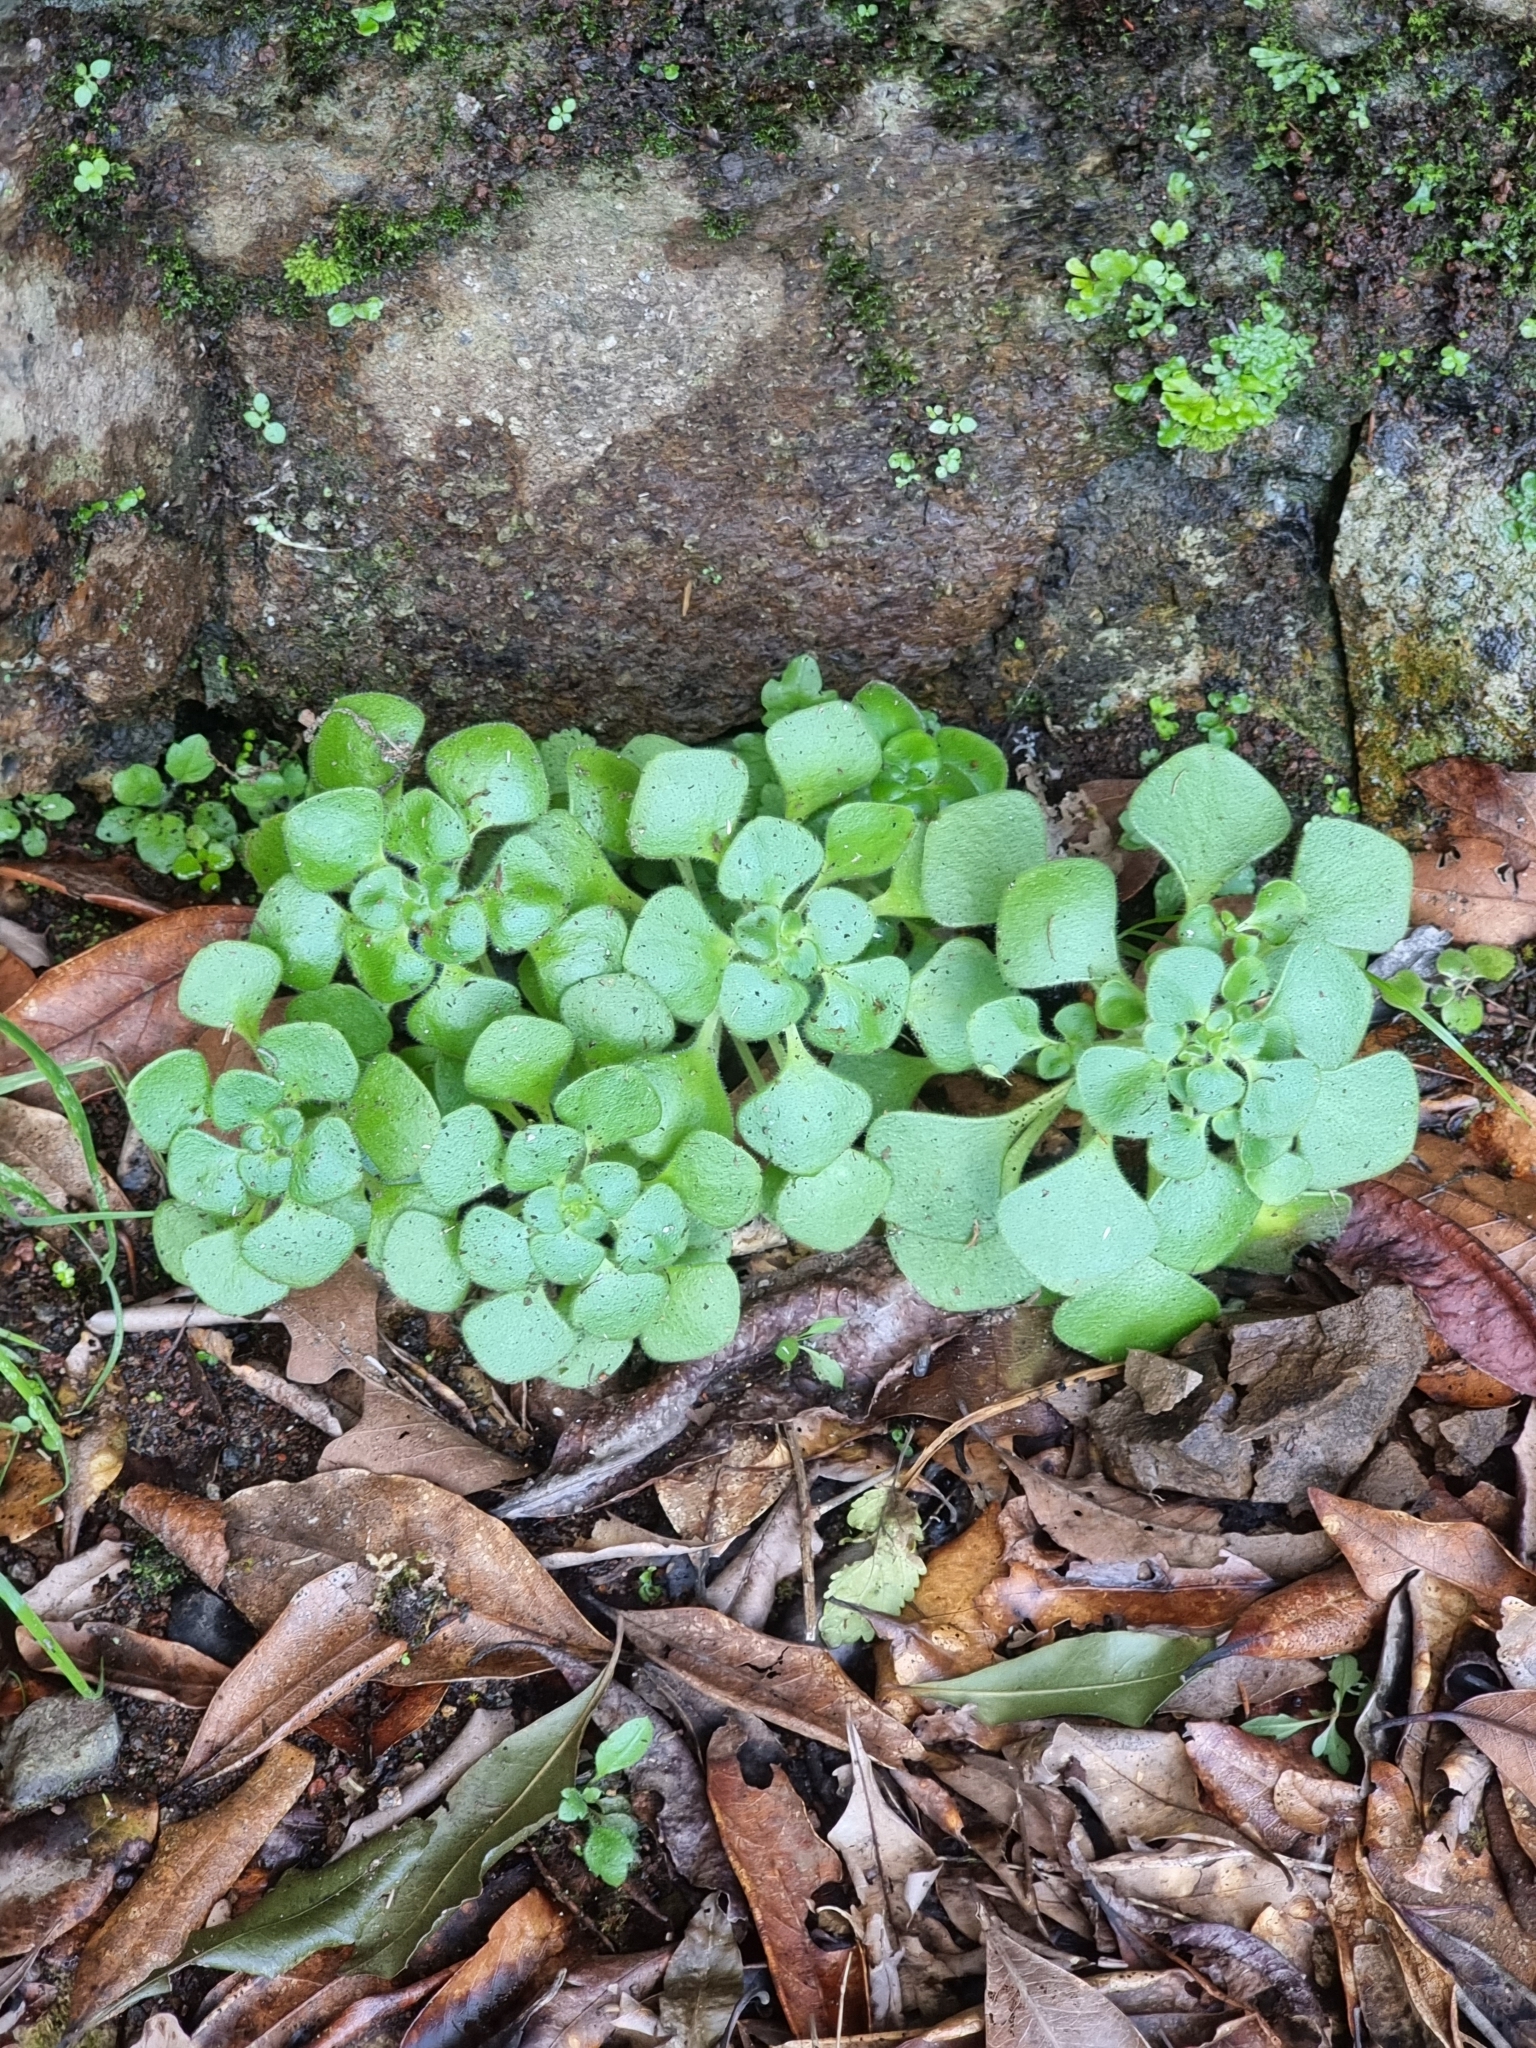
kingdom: Plantae
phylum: Tracheophyta
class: Magnoliopsida
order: Saxifragales
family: Crassulaceae
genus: Aichryson
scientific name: Aichryson villosum
